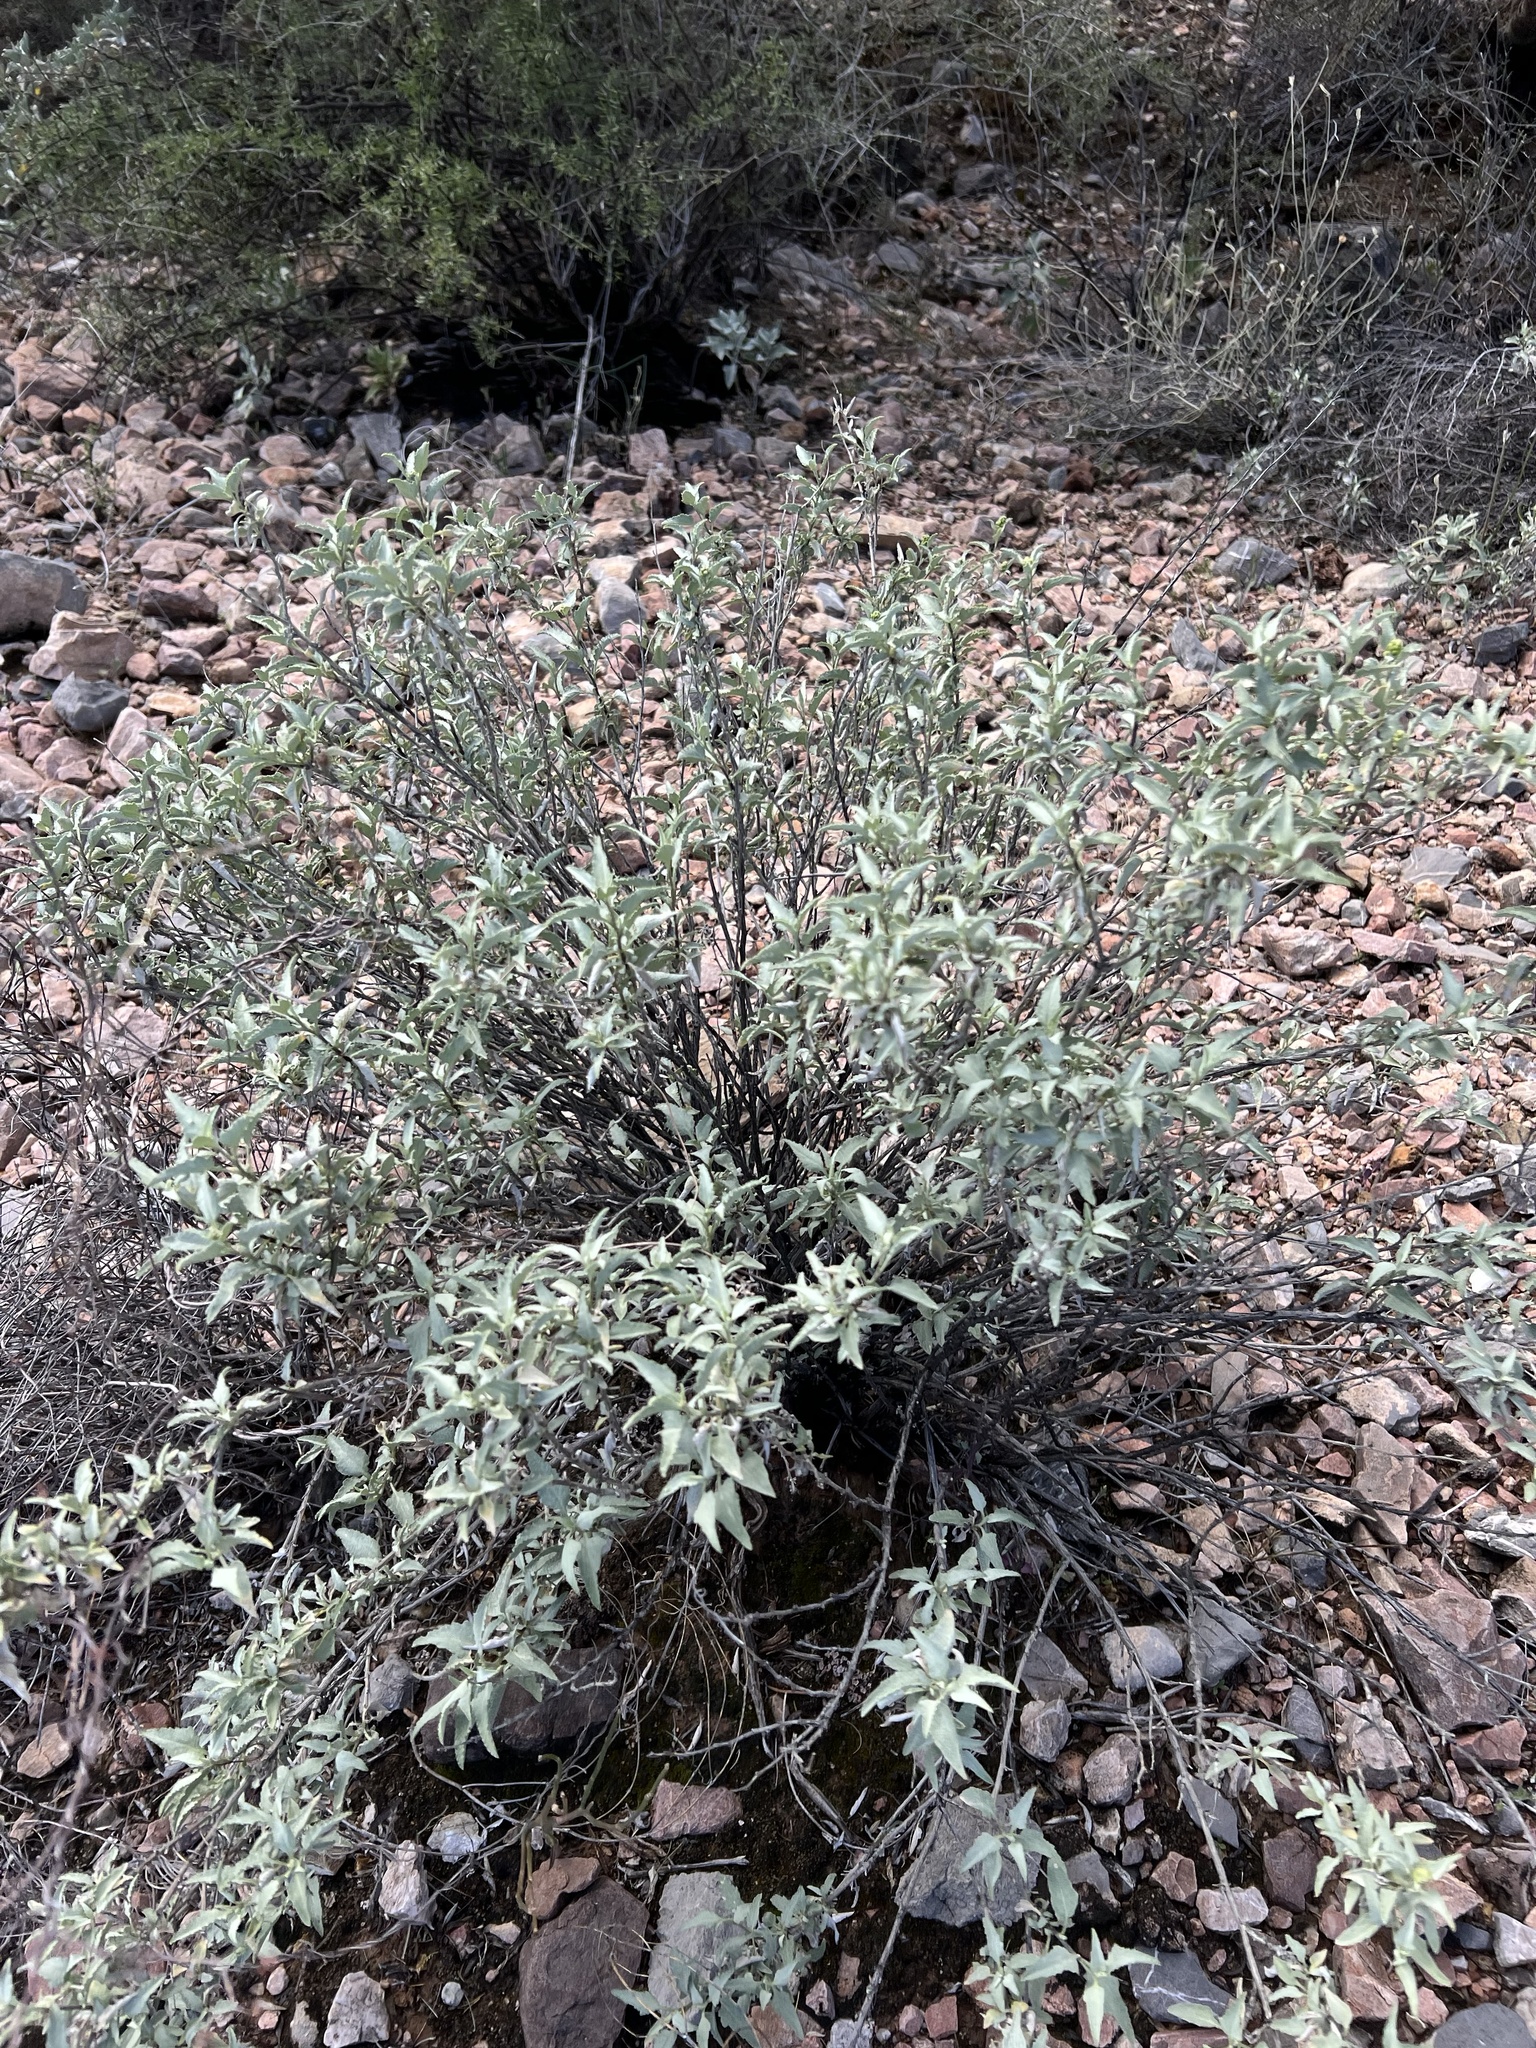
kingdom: Plantae
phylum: Tracheophyta
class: Magnoliopsida
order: Asterales
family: Asteraceae
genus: Ambrosia
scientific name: Ambrosia deltoidea
